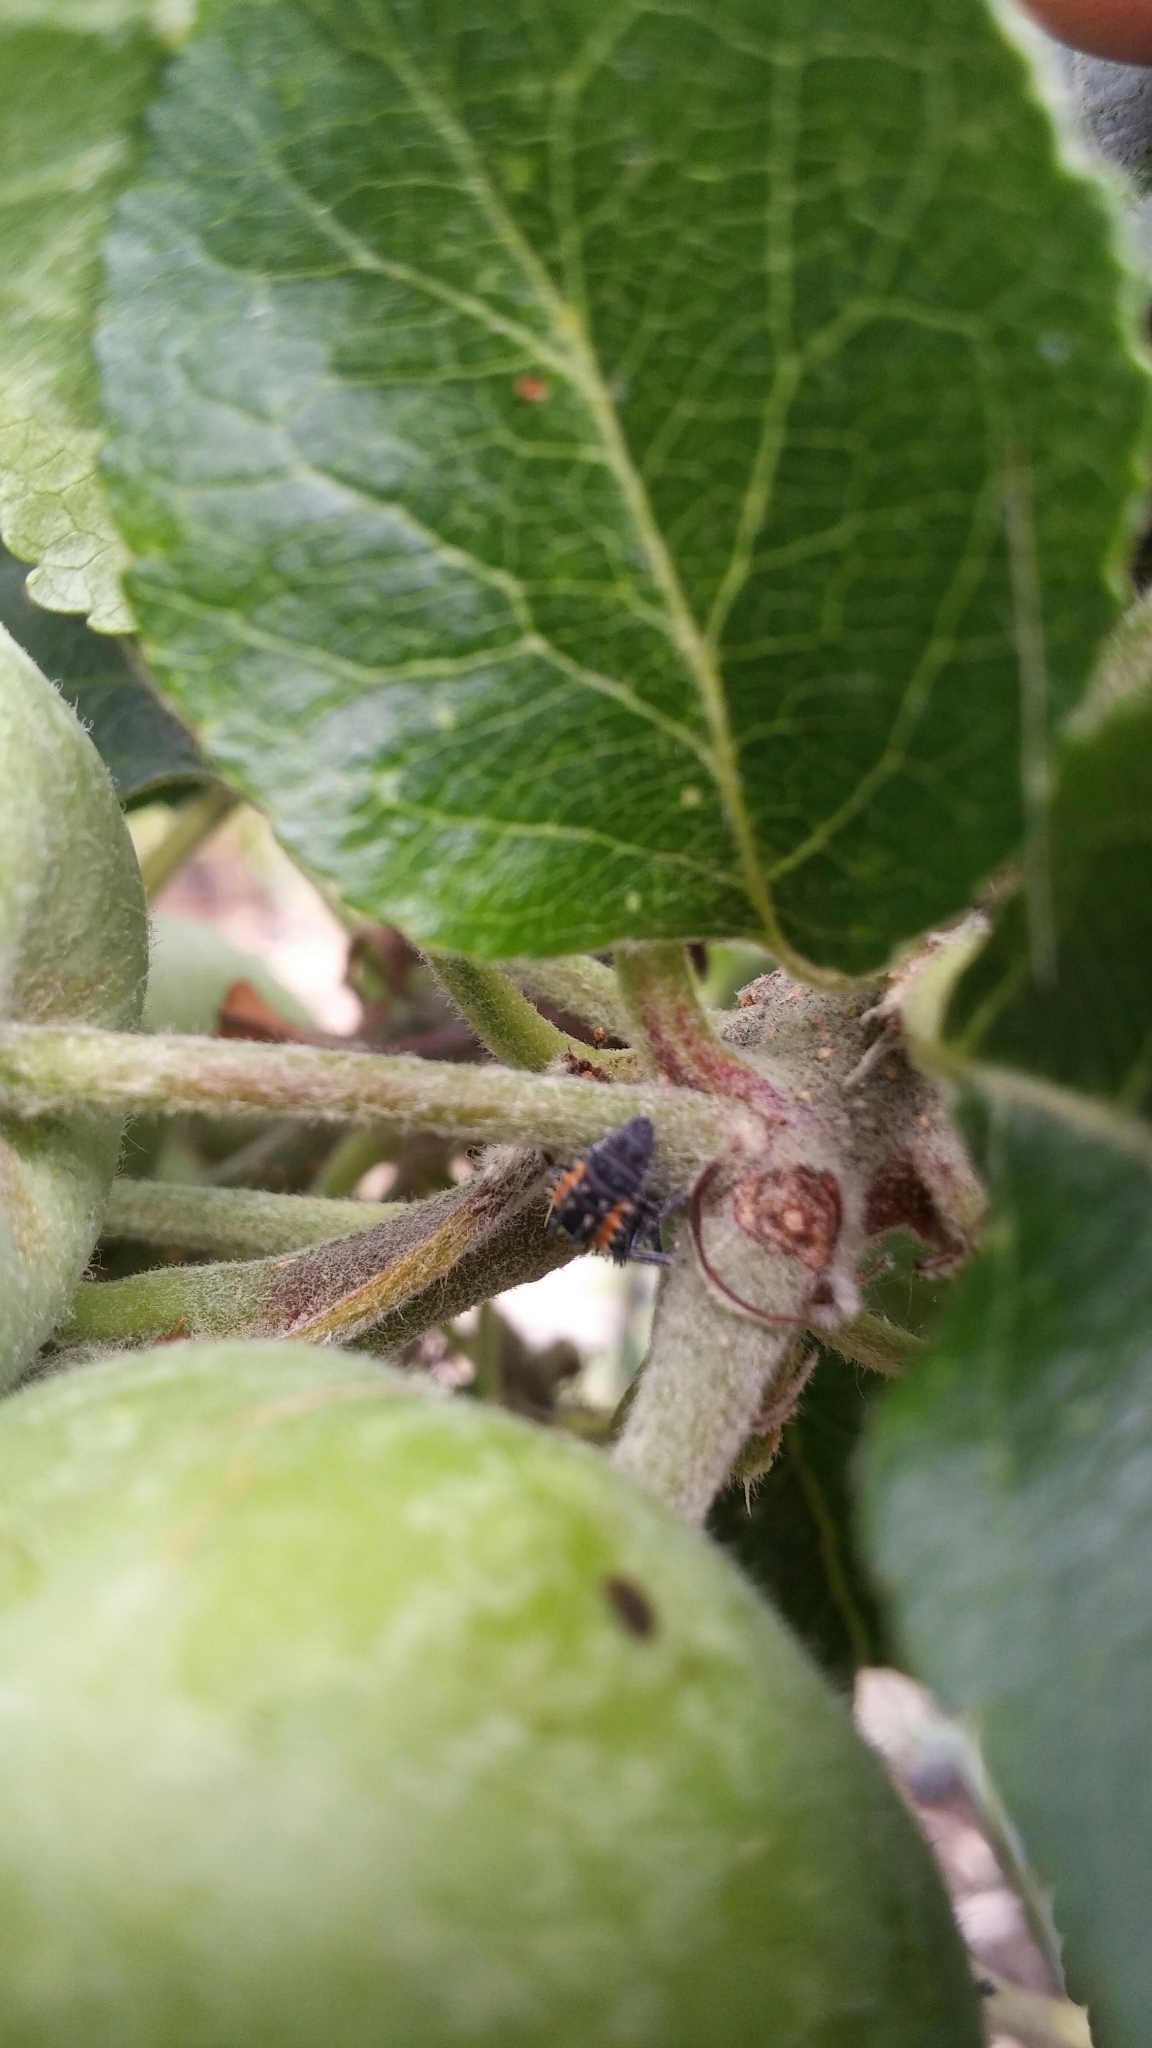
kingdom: Animalia
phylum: Arthropoda
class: Insecta
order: Coleoptera
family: Coccinellidae
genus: Harmonia
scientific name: Harmonia axyridis
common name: Harlequin ladybird
